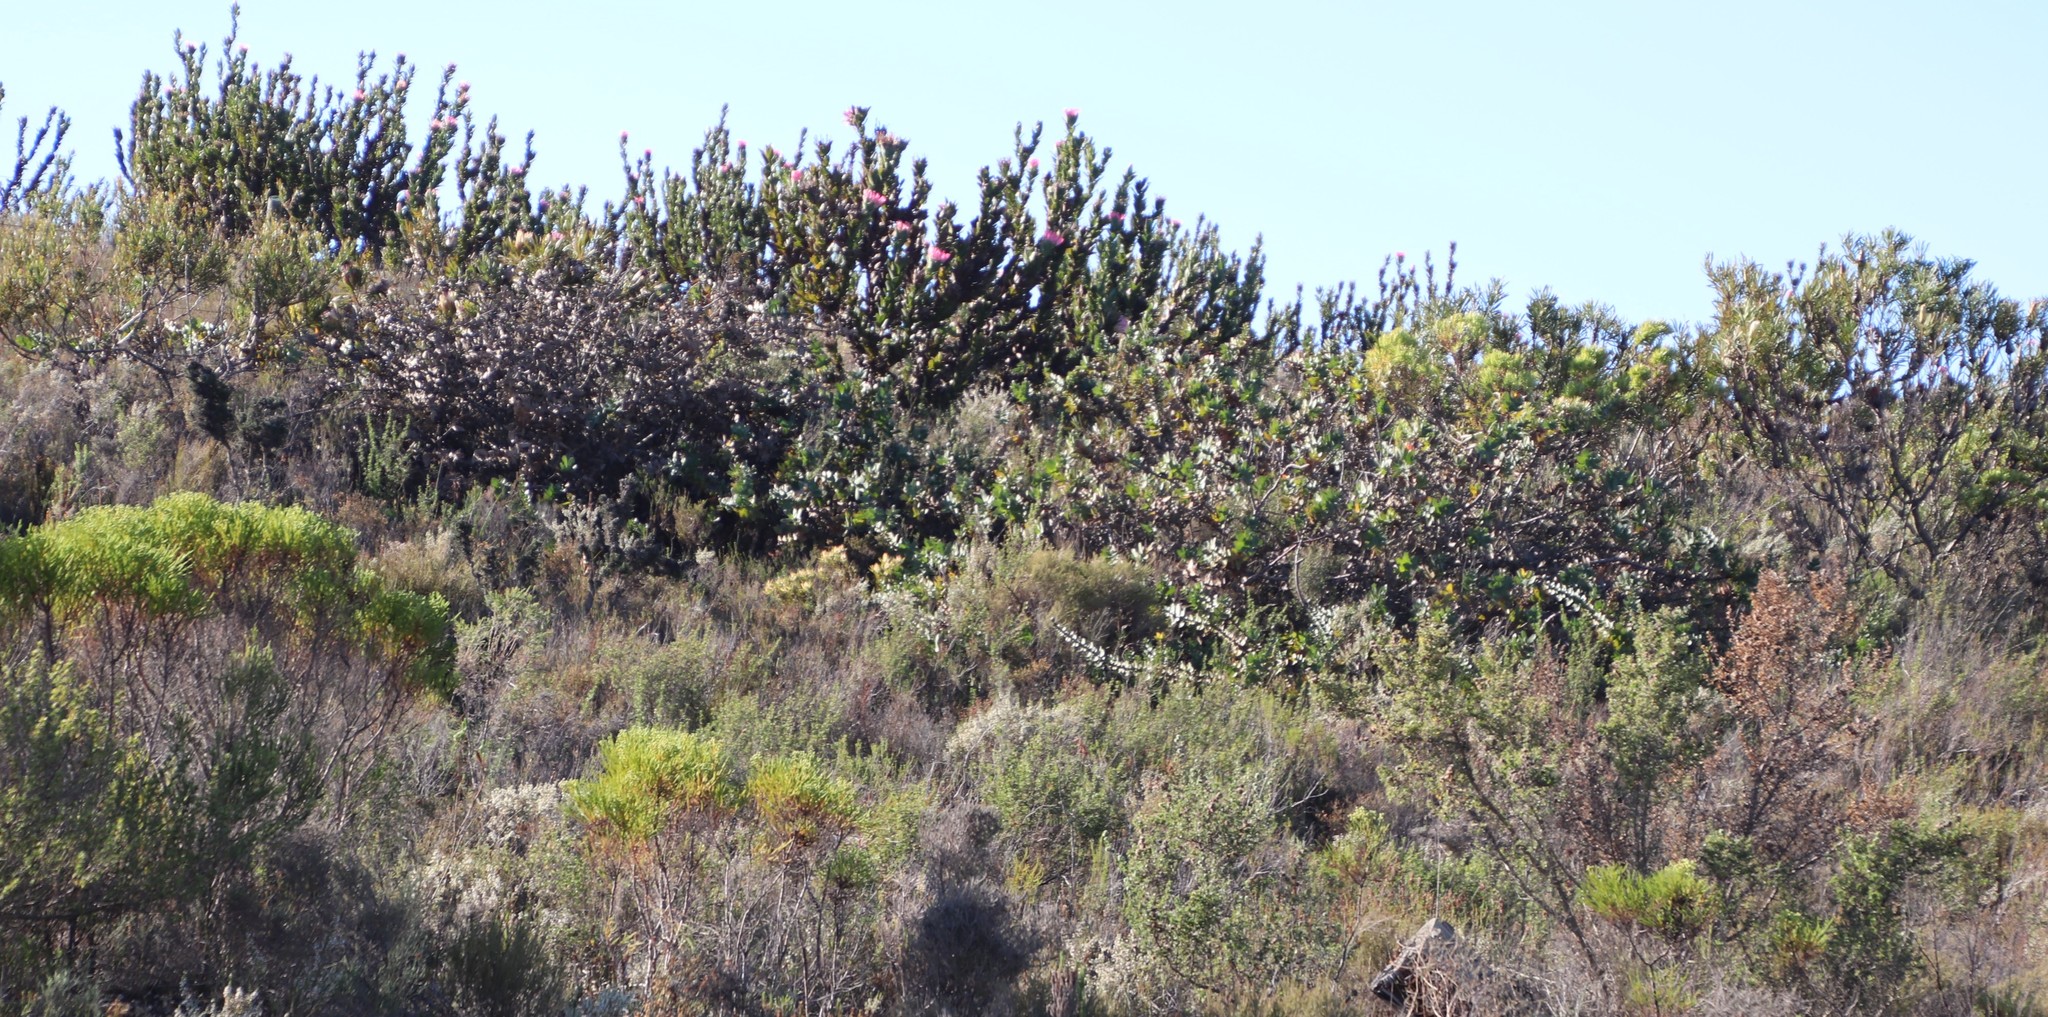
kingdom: Plantae
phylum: Tracheophyta
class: Magnoliopsida
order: Proteales
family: Proteaceae
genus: Protea
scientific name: Protea compacta
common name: Bot river protea
